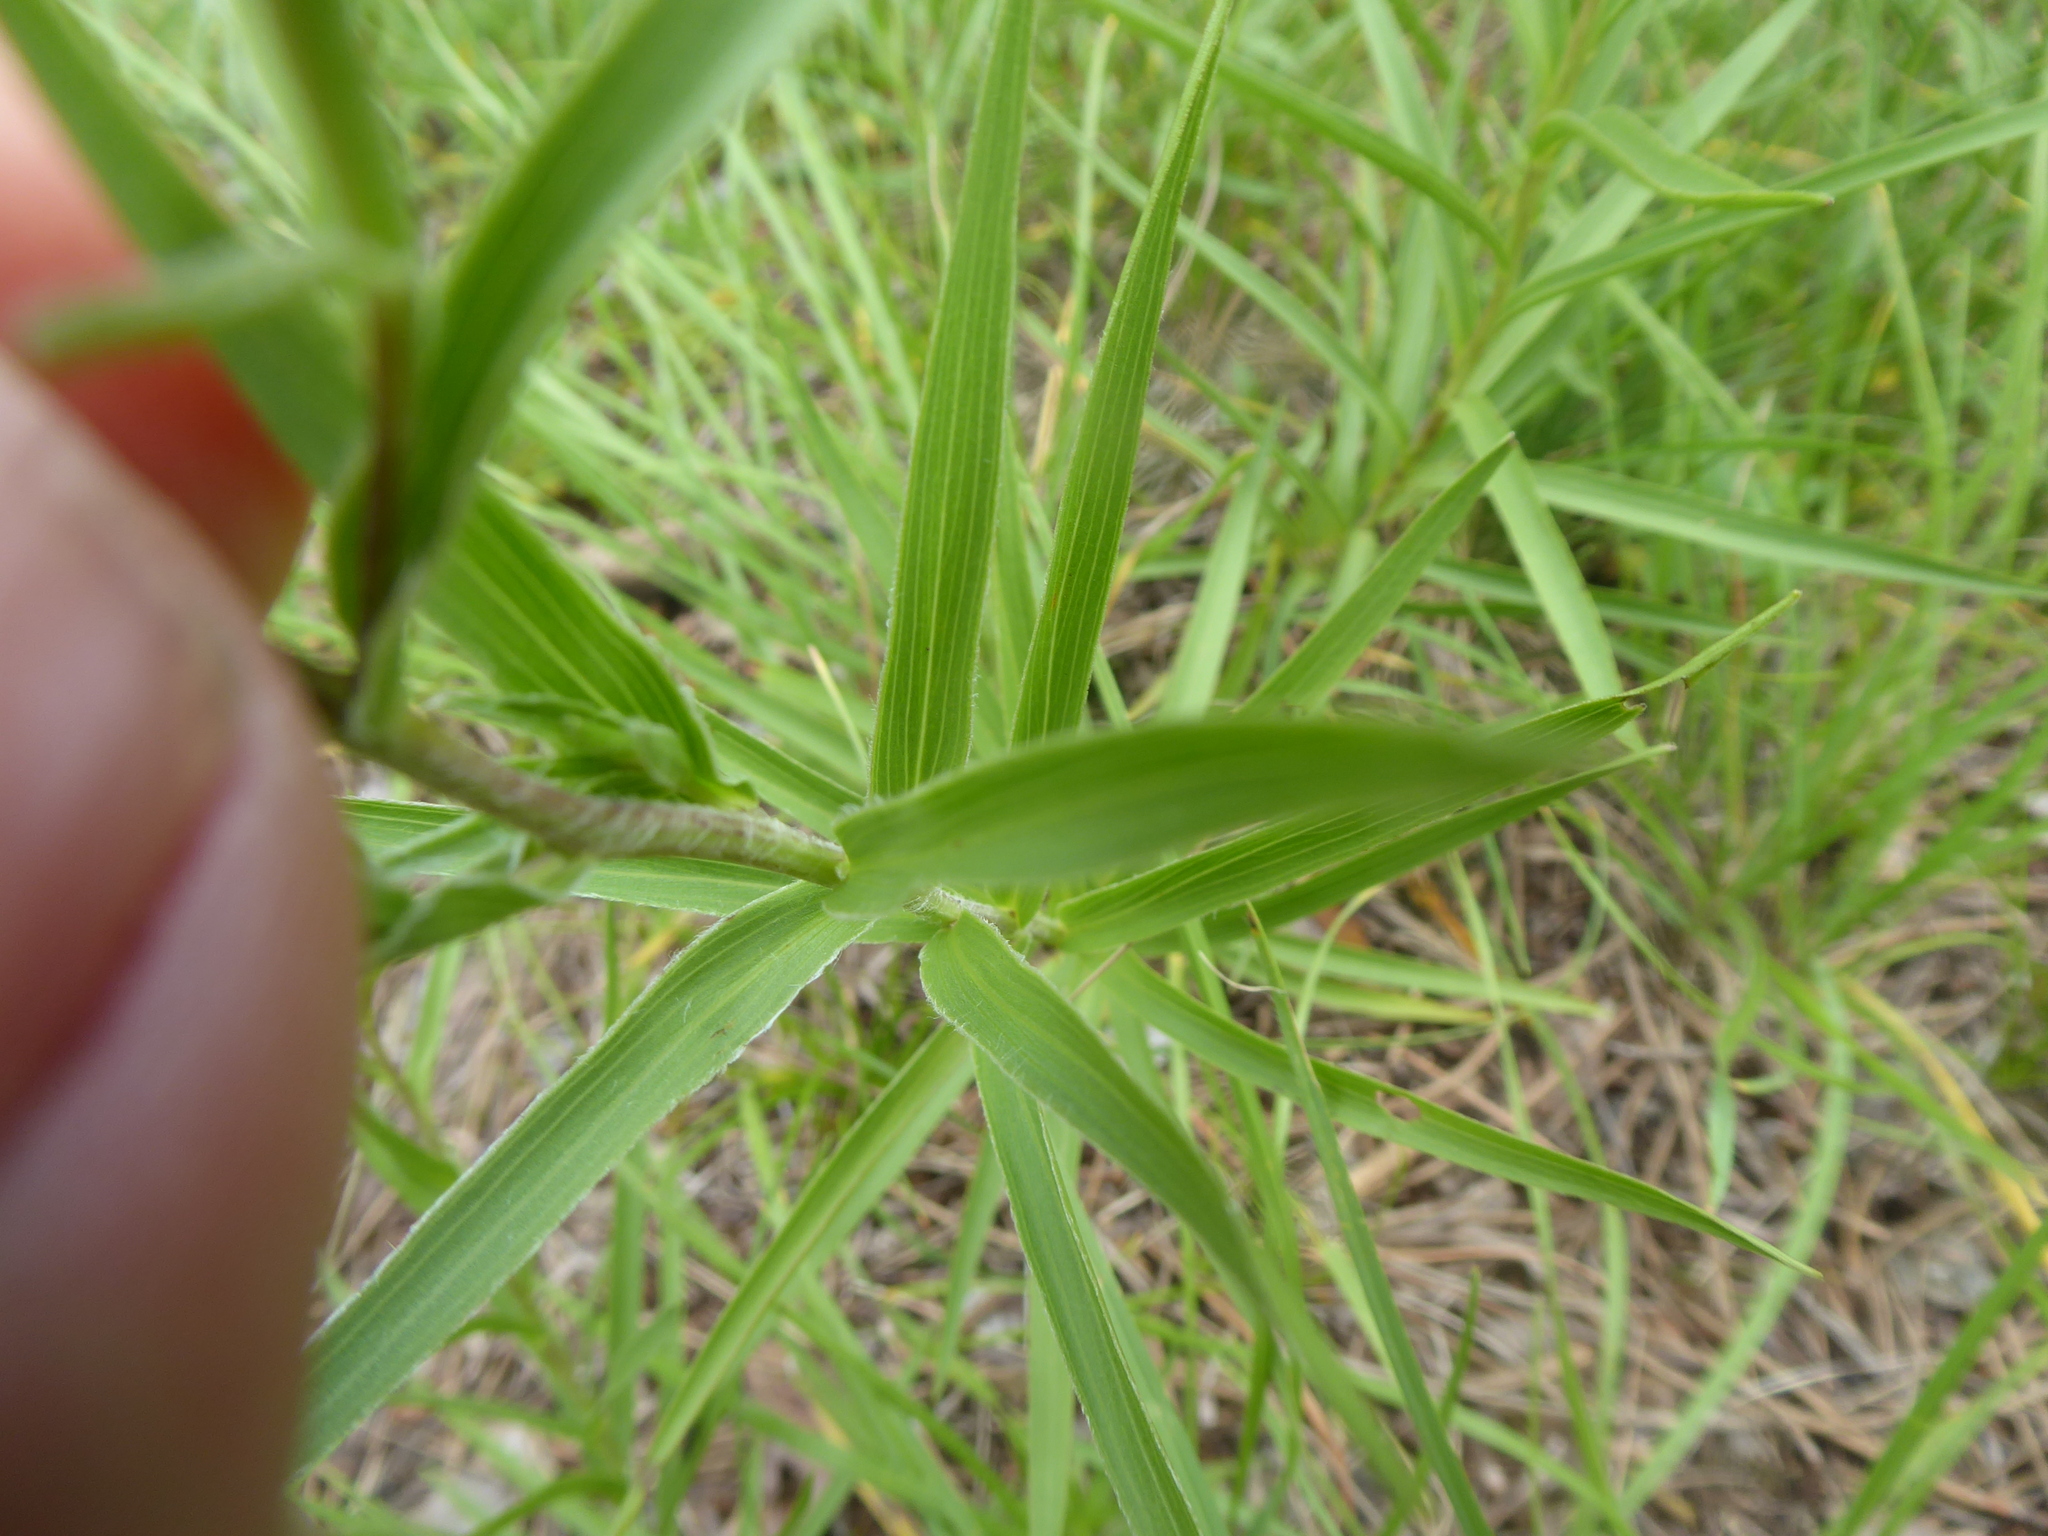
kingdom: Plantae
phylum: Tracheophyta
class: Magnoliopsida
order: Asterales
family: Asteraceae
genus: Pentanema
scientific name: Pentanema ensifolium
